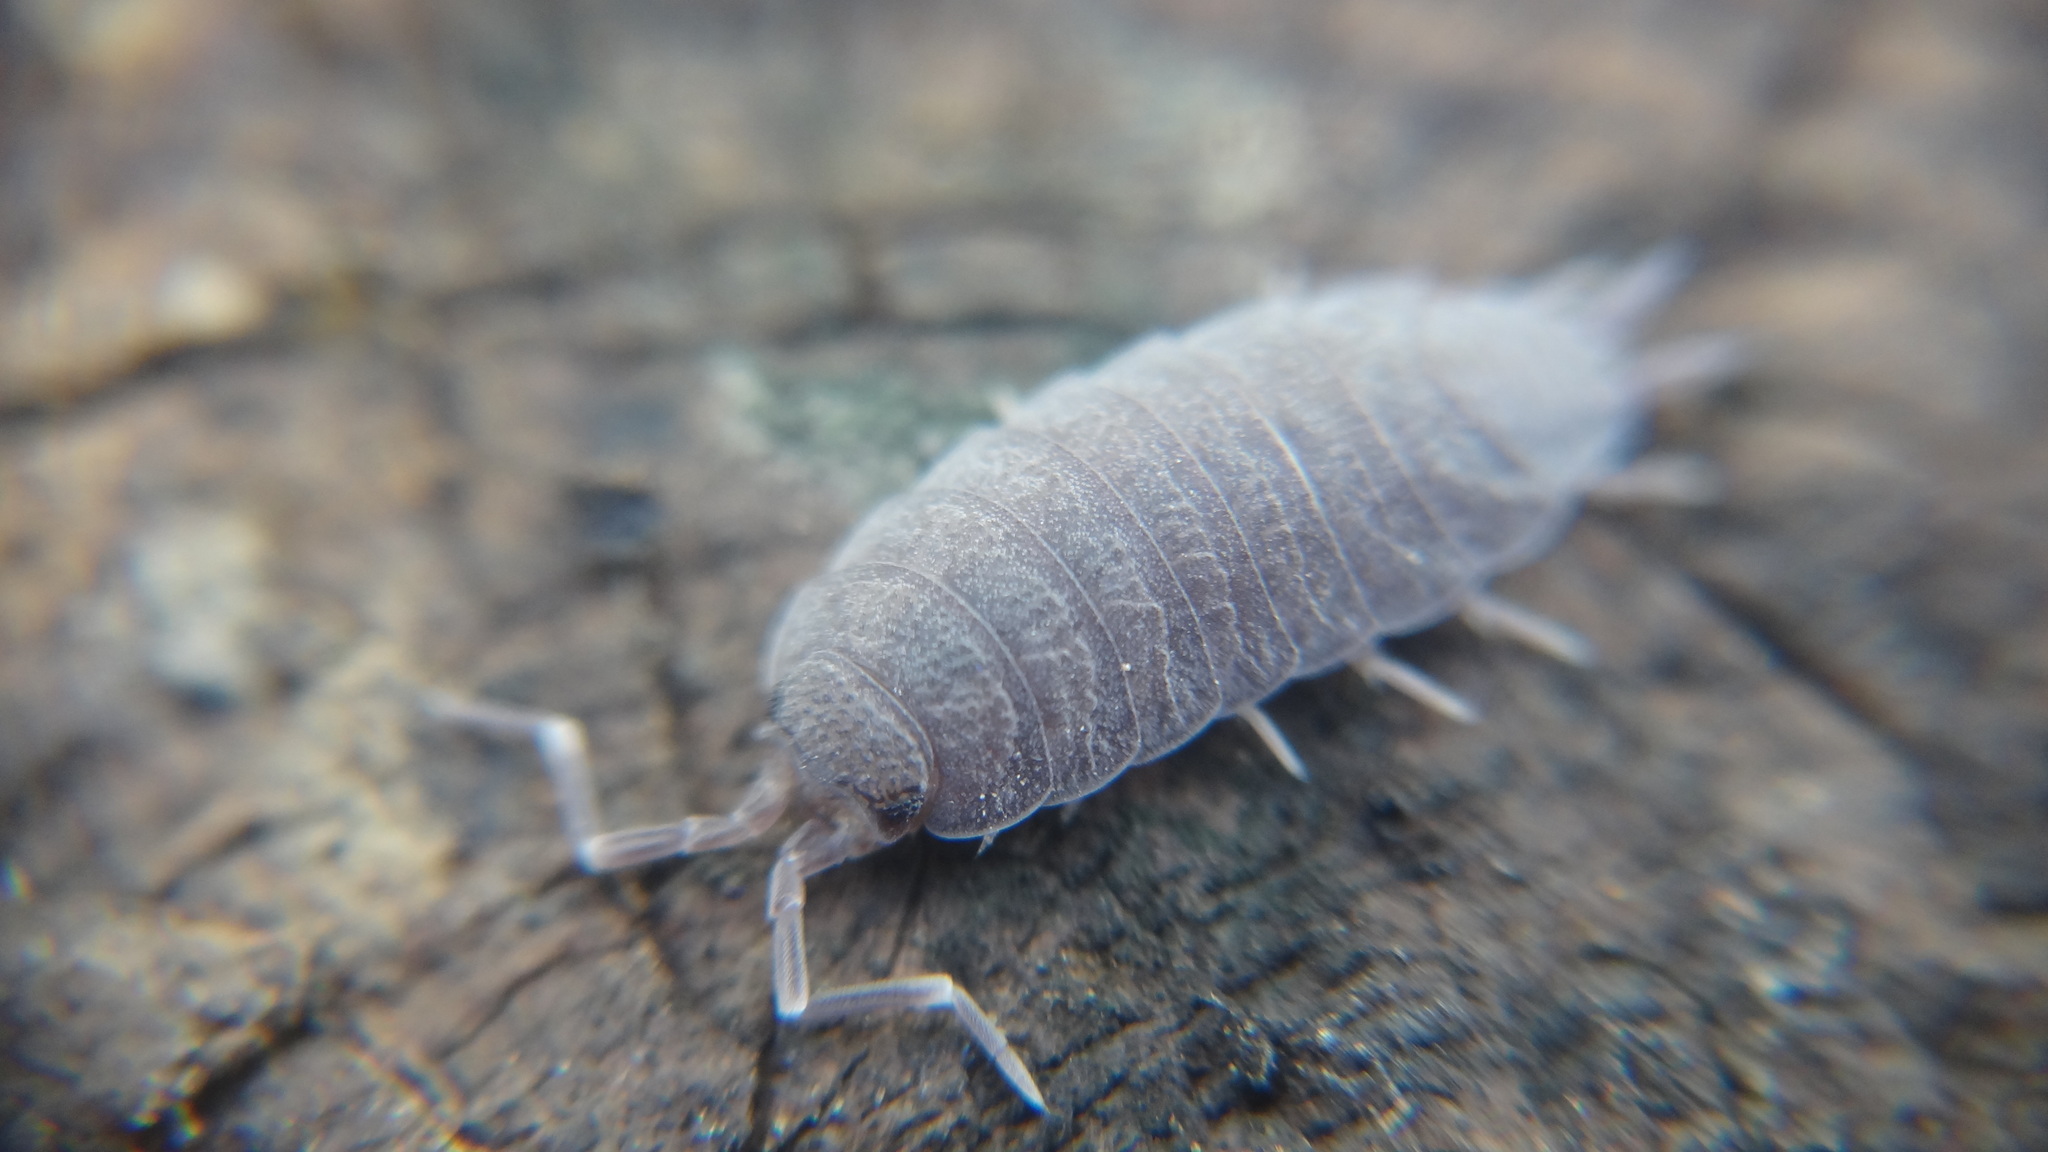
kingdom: Animalia
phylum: Arthropoda
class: Malacostraca
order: Isopoda
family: Porcellionidae
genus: Porcellionides
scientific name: Porcellionides pruinosus
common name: Plum woodlouse
